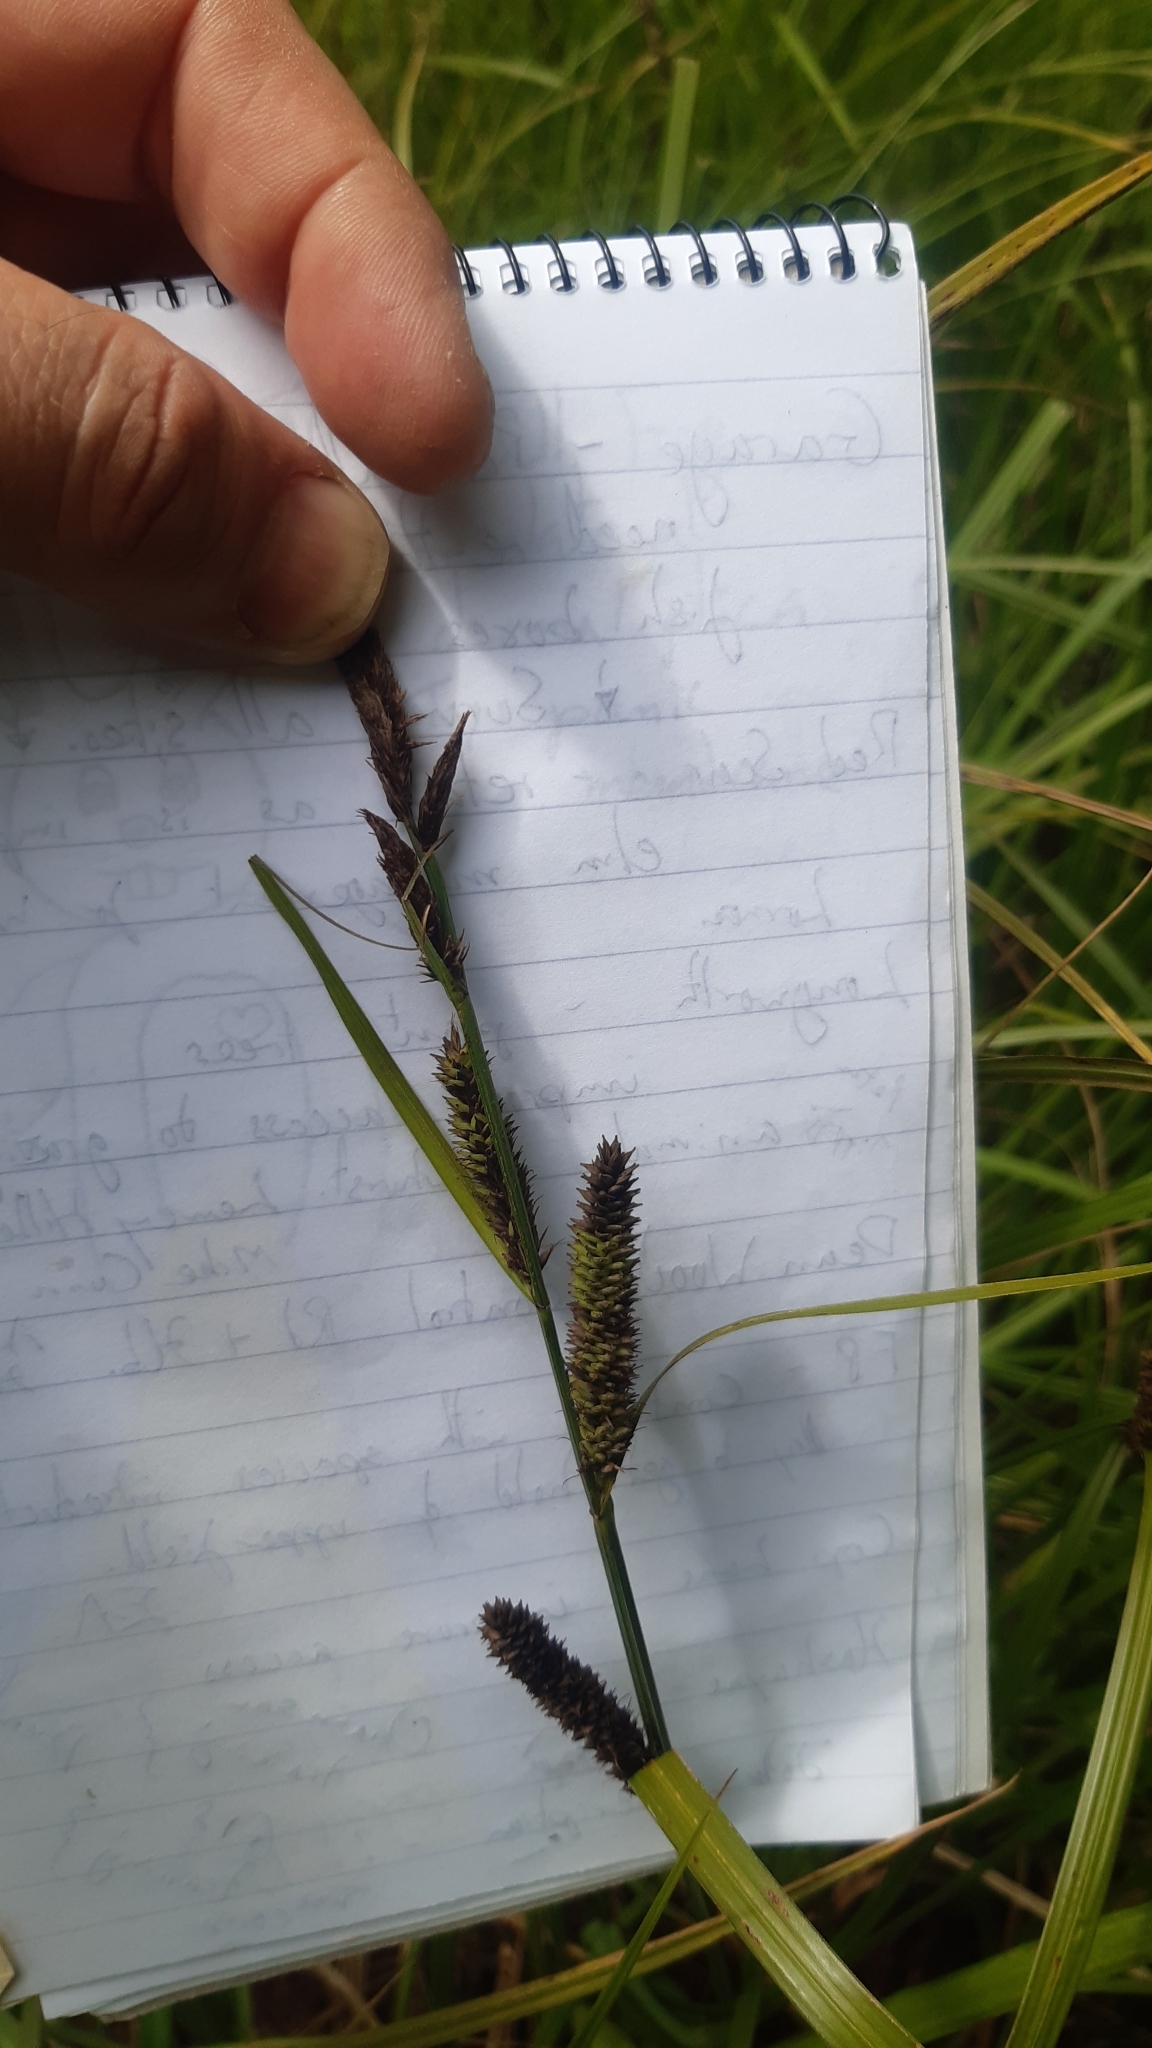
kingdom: Plantae
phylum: Tracheophyta
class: Liliopsida
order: Poales
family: Cyperaceae
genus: Carex
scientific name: Carex acutiformis
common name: Lesser pond-sedge
